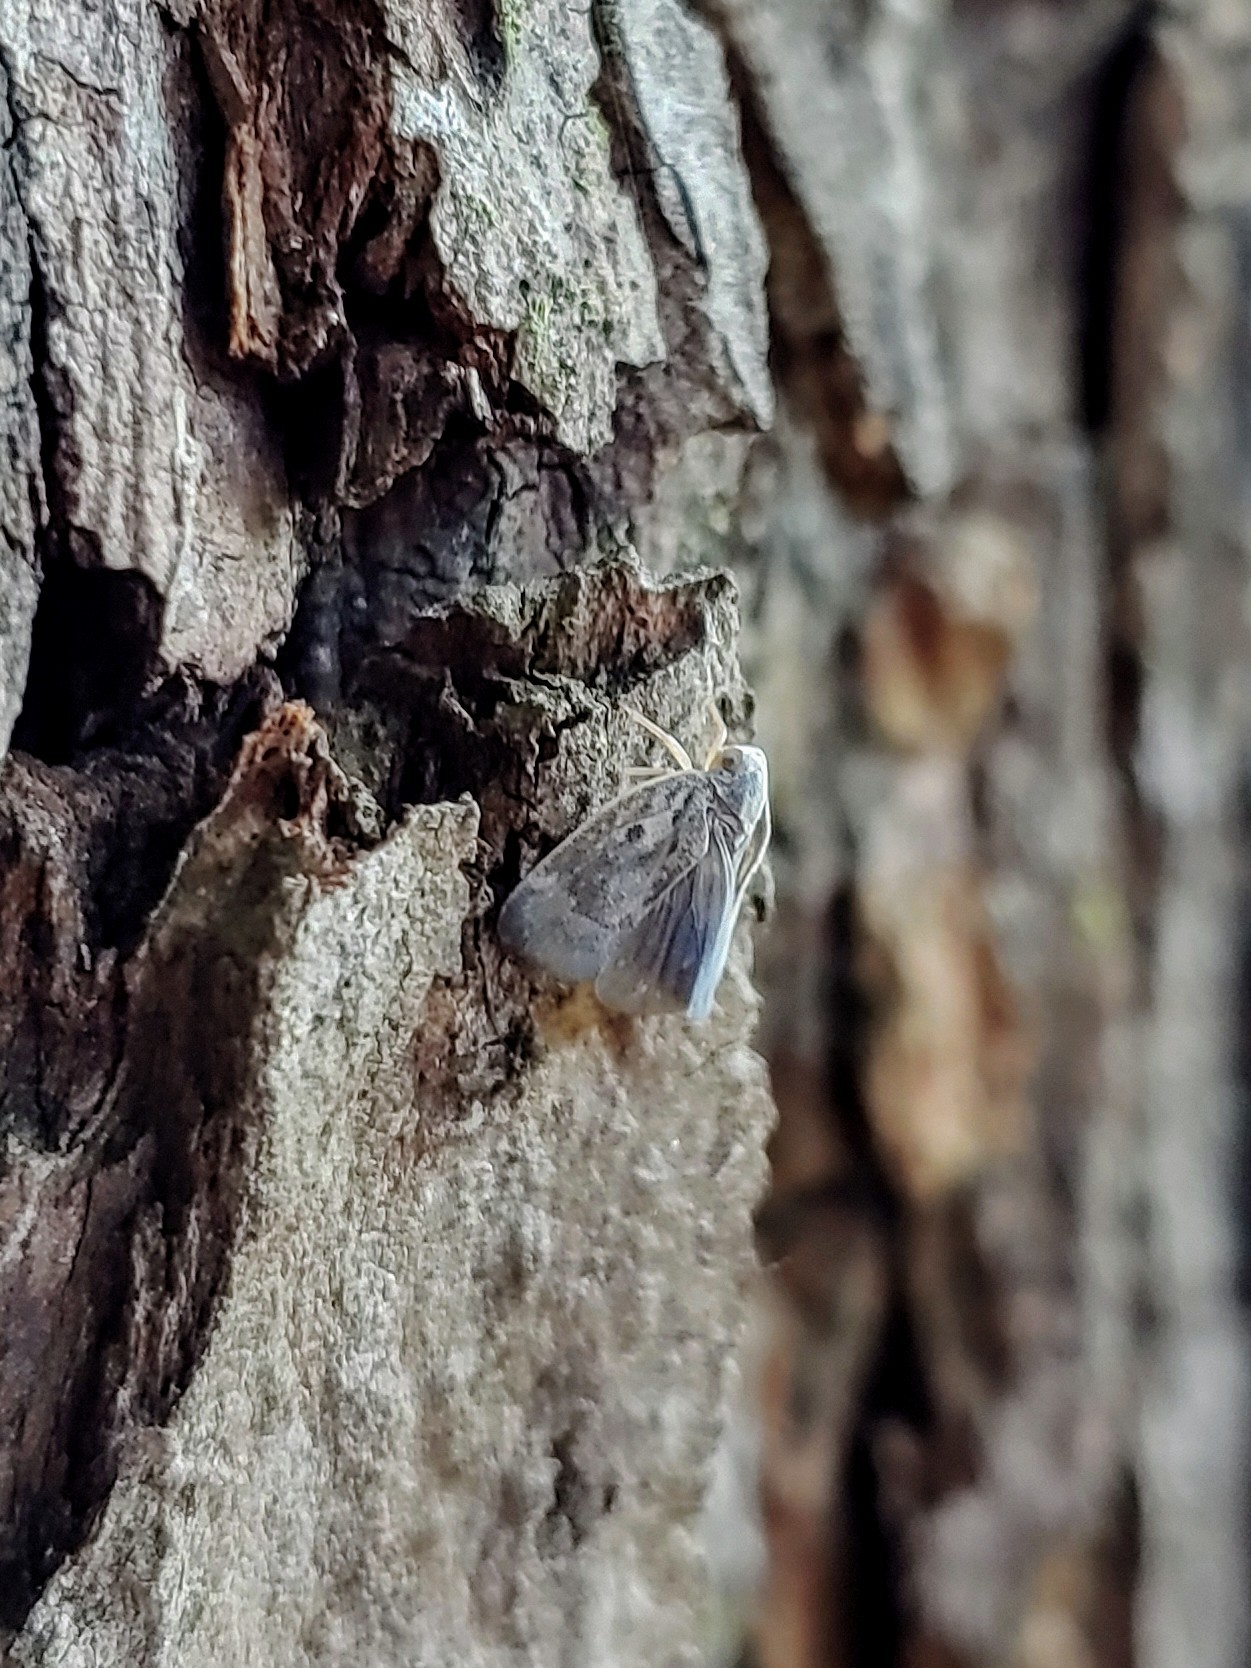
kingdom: Animalia
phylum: Arthropoda
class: Insecta
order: Hemiptera
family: Flatidae
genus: Metcalfa
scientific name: Metcalfa pruinosa
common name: Citrus flatid planthopper
